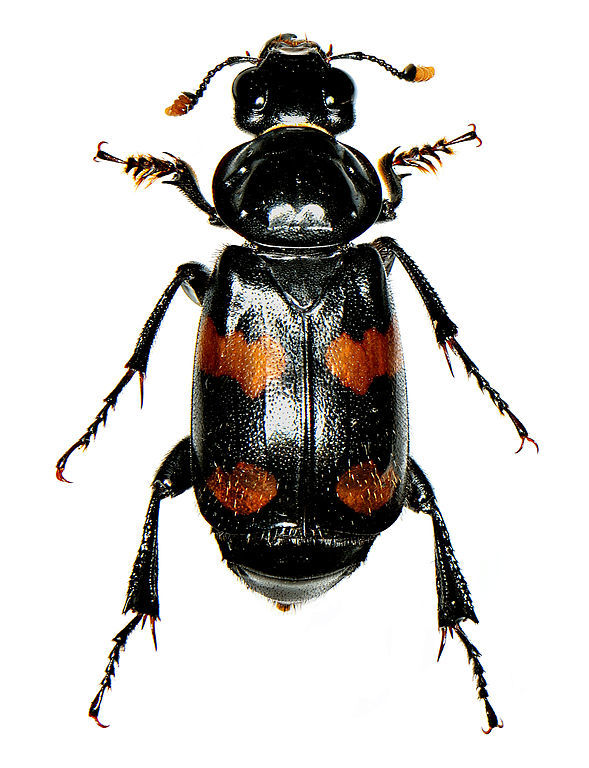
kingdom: Animalia
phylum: Arthropoda
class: Insecta
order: Coleoptera
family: Staphylinidae
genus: Nicrophorus
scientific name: Nicrophorus orbicollis
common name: Roundneck sexton beetle
